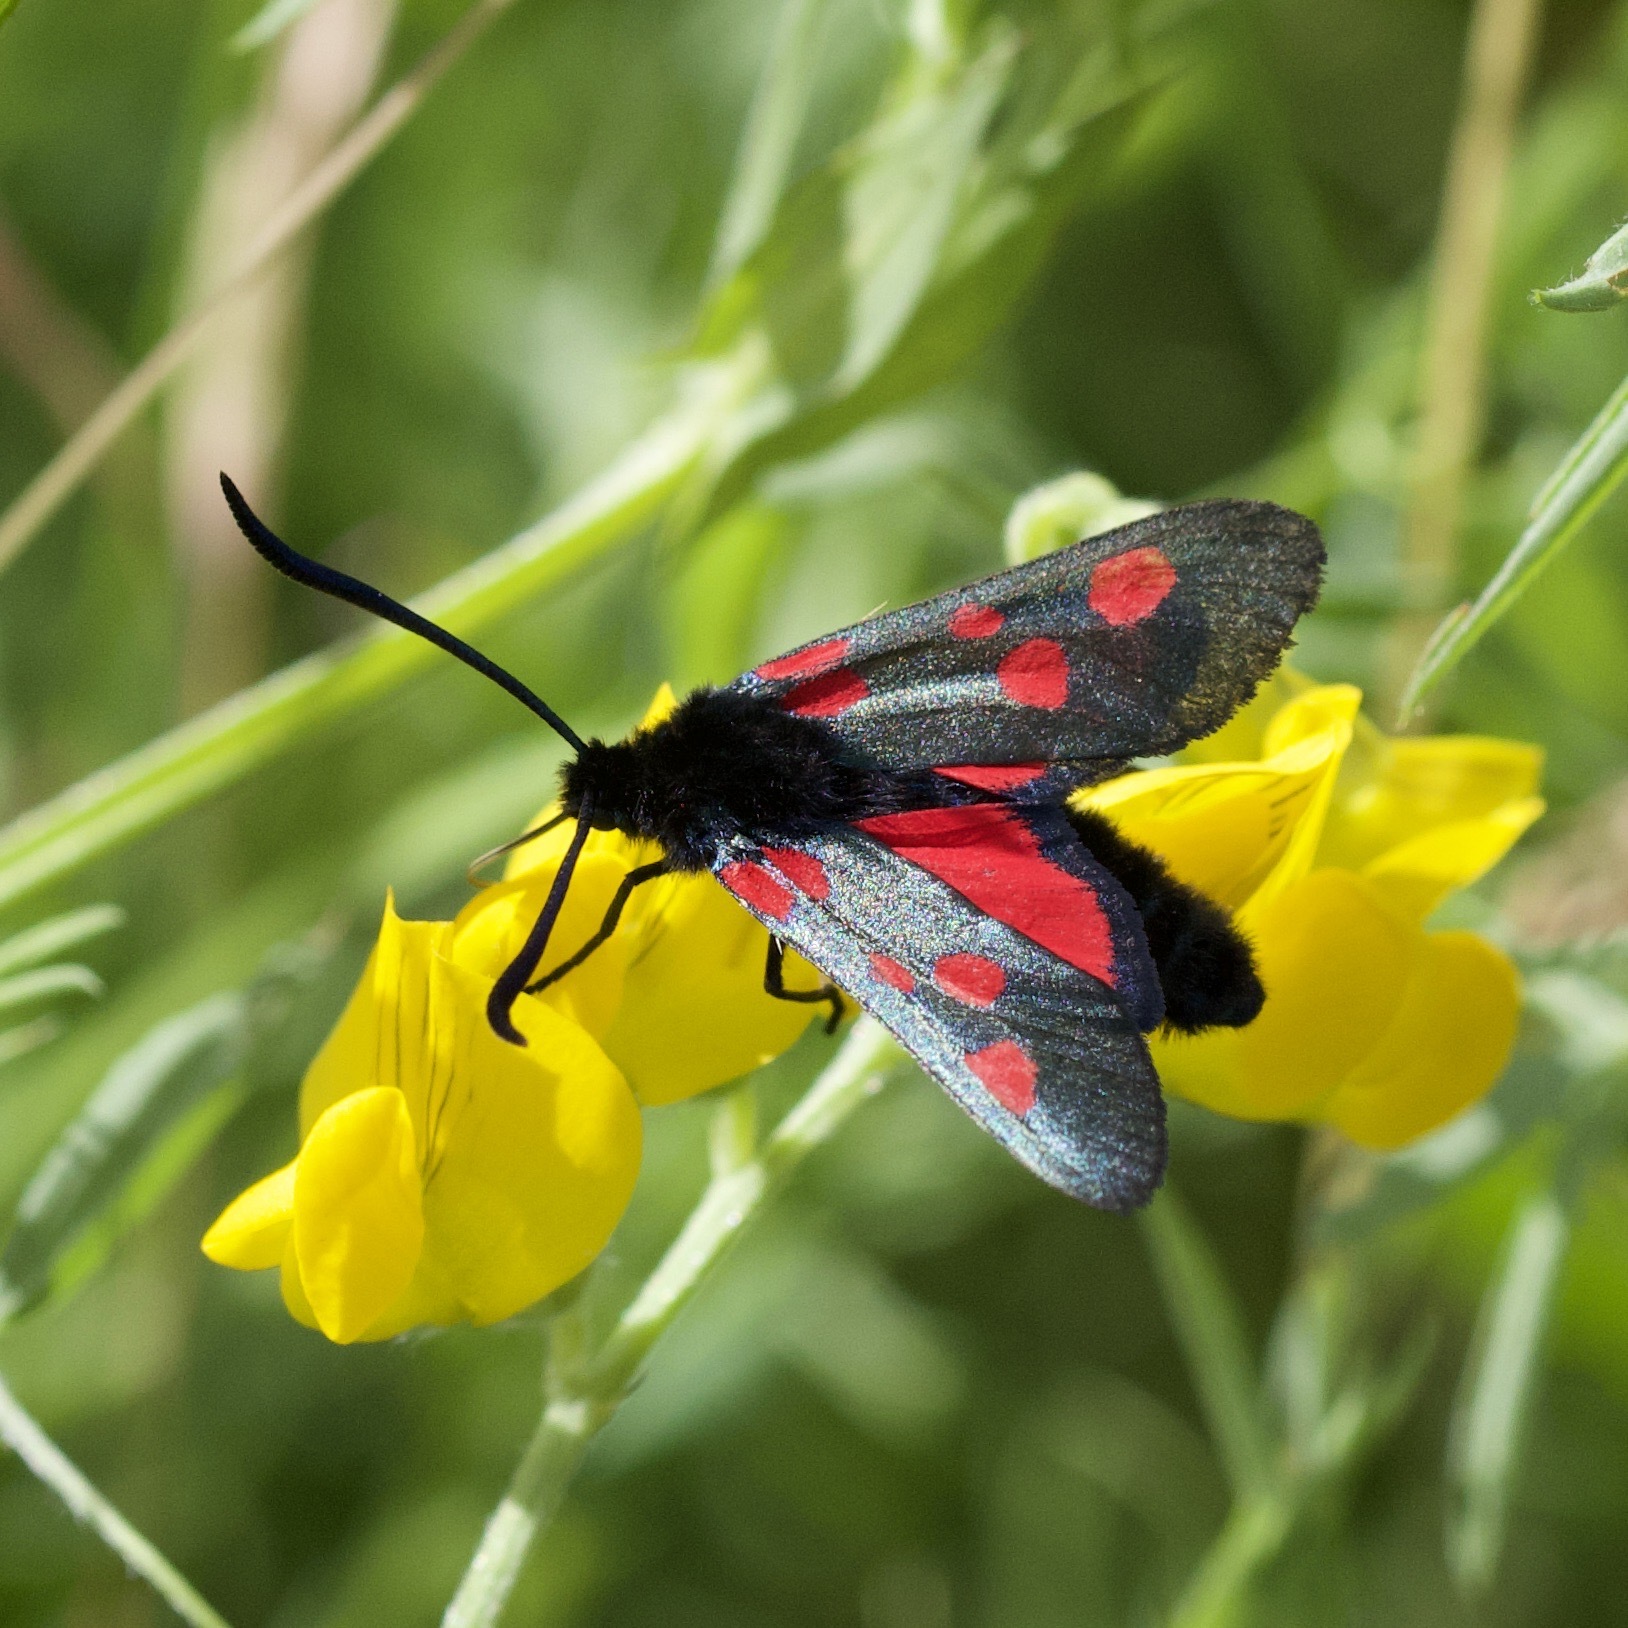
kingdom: Animalia
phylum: Arthropoda
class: Insecta
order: Lepidoptera
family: Zygaenidae
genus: Zygaena
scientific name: Zygaena lonicerae
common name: Narrow-bordered five-spot burnet
